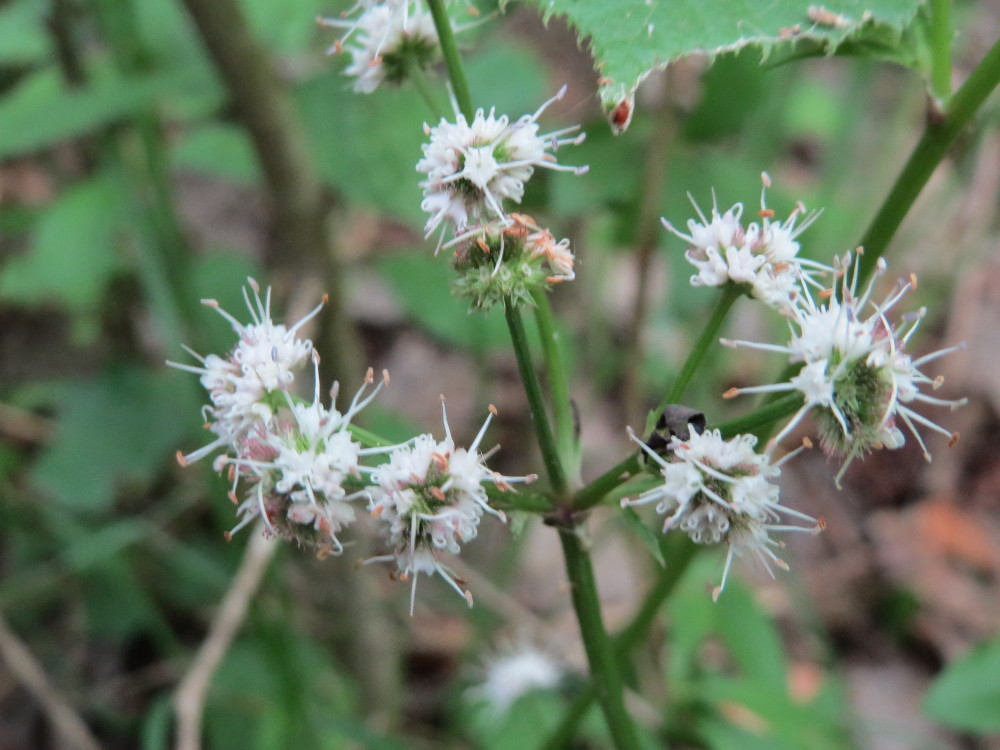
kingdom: Plantae
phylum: Tracheophyta
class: Magnoliopsida
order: Apiales
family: Apiaceae
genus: Sanicula
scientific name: Sanicula europaea
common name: Sanicle
